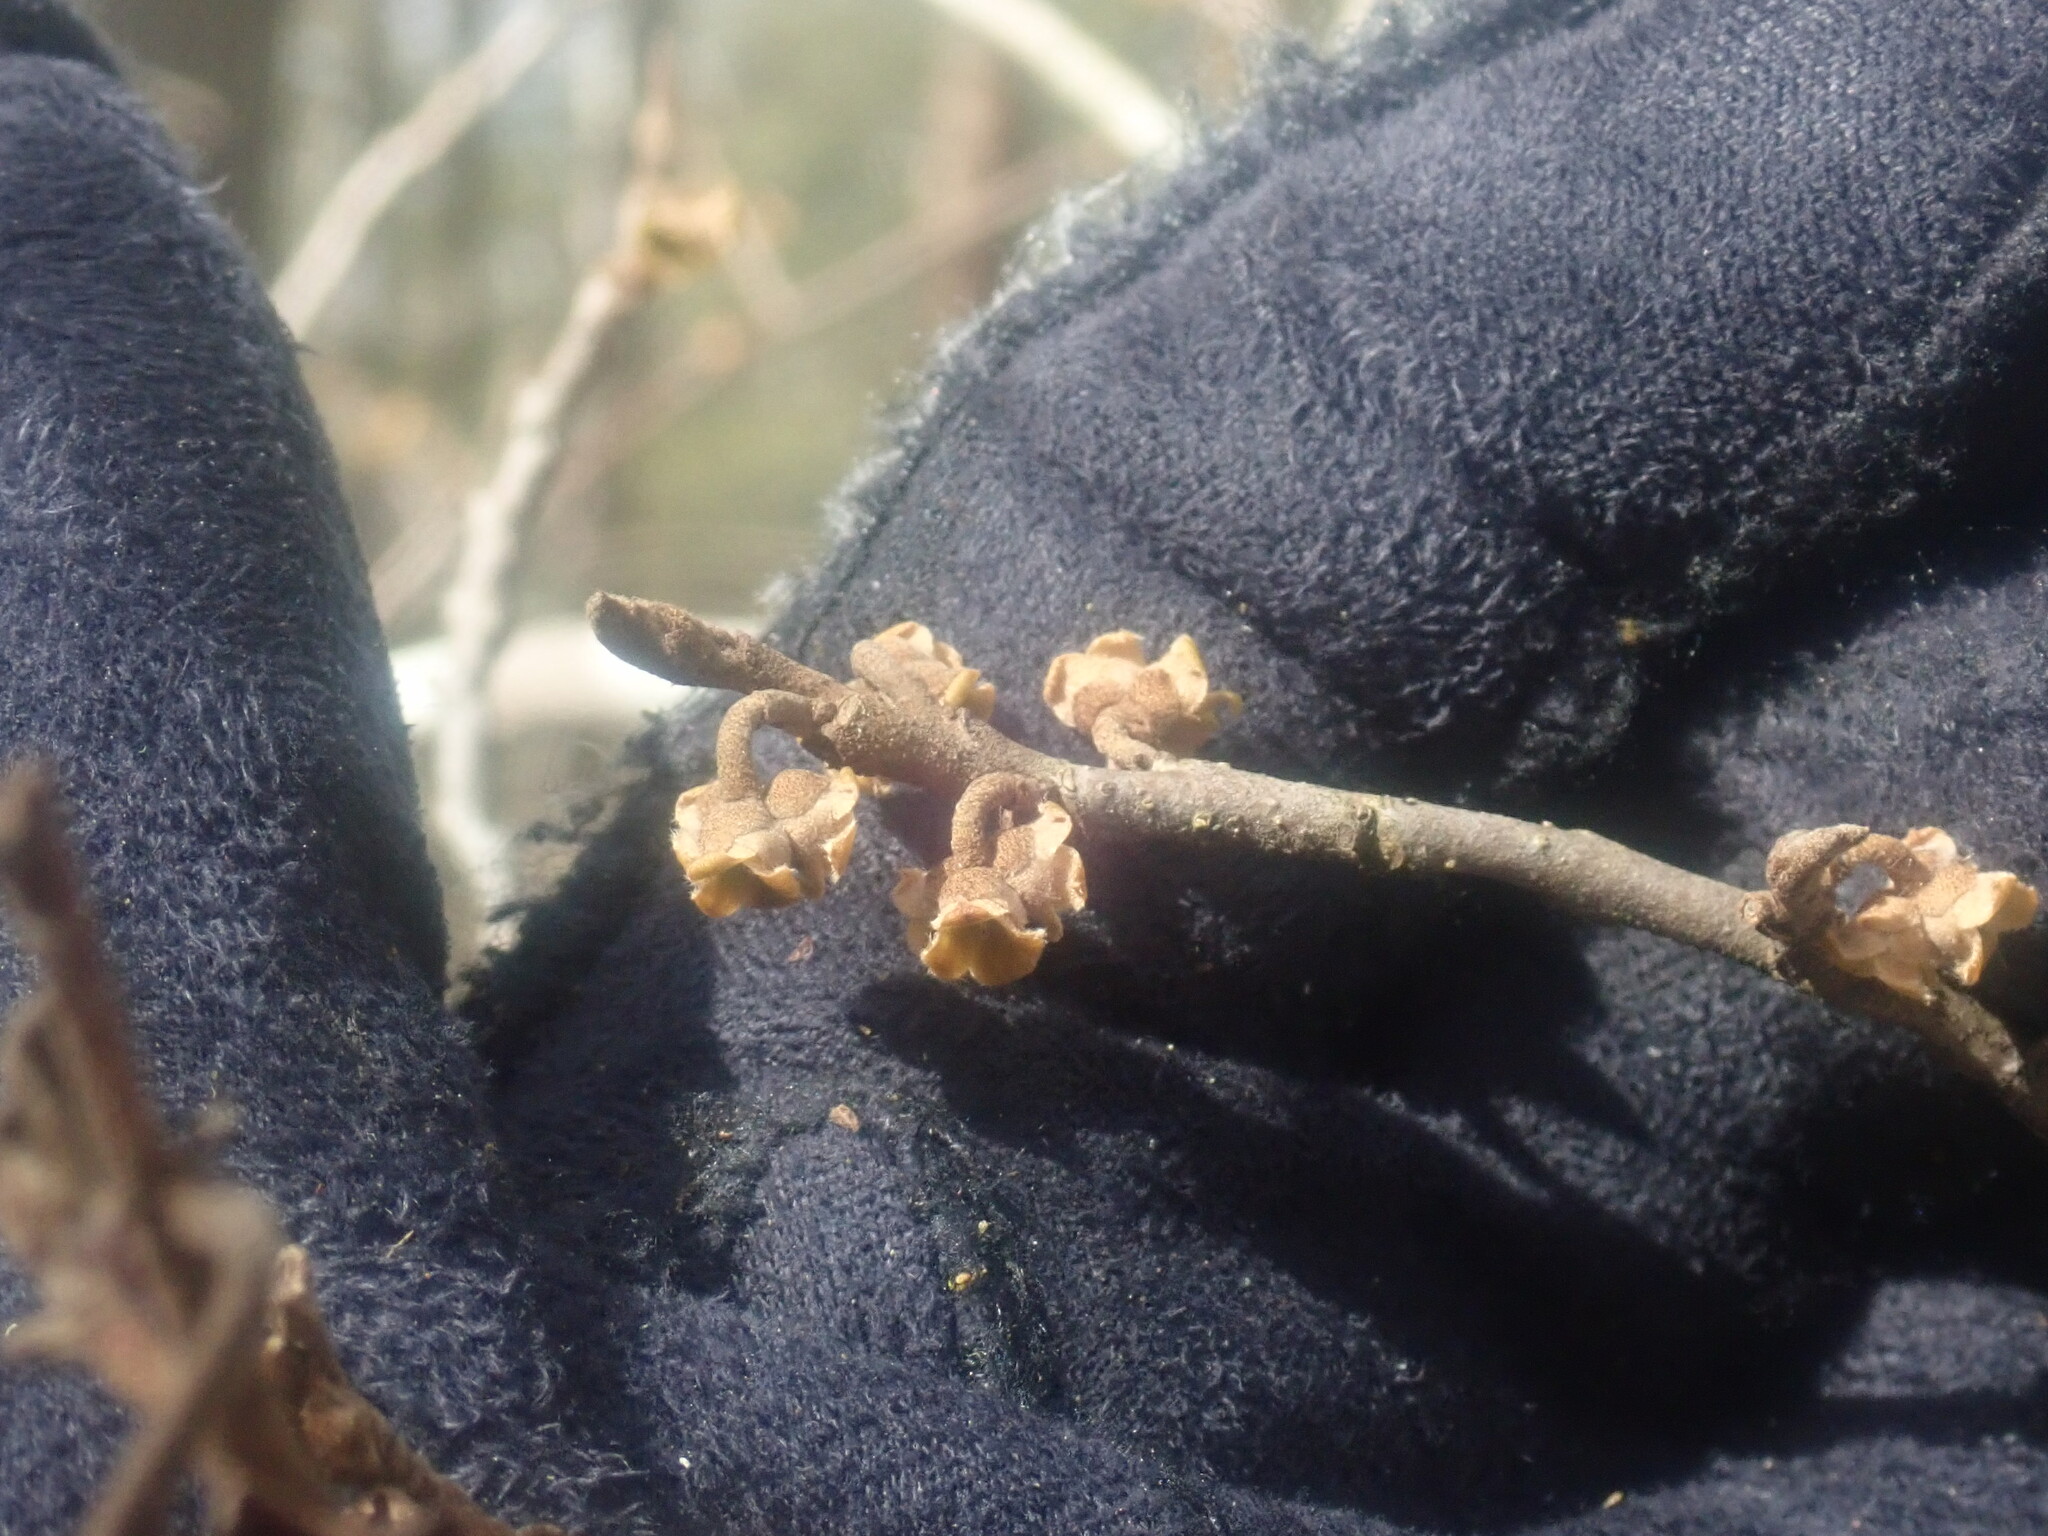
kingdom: Plantae
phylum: Tracheophyta
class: Magnoliopsida
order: Saxifragales
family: Hamamelidaceae
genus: Hamamelis
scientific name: Hamamelis virginiana
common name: Witch-hazel
